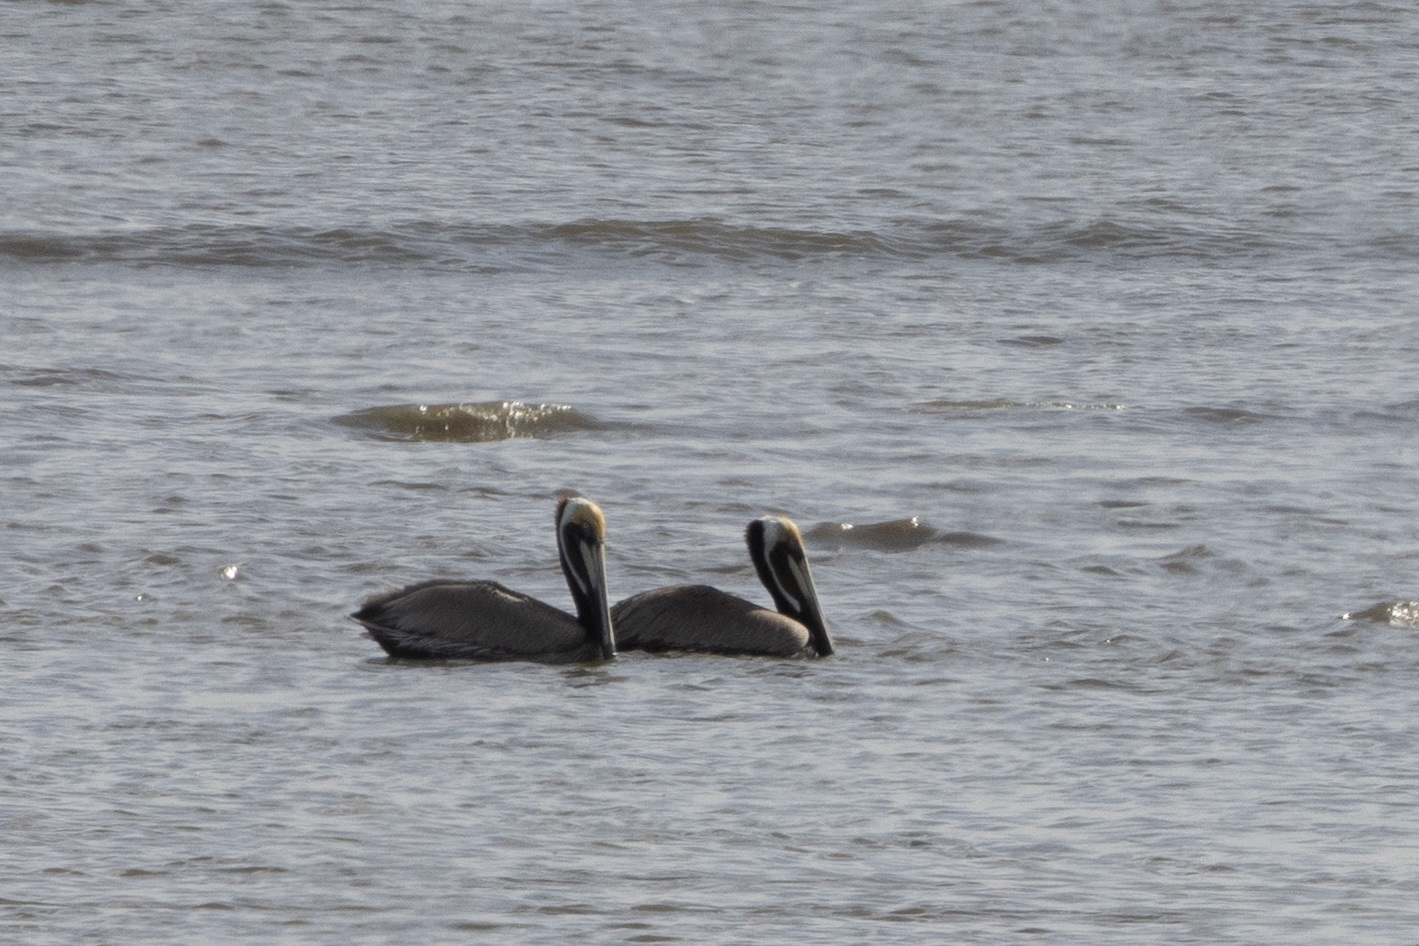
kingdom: Animalia
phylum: Chordata
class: Aves
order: Pelecaniformes
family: Pelecanidae
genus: Pelecanus
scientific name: Pelecanus occidentalis
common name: Brown pelican
